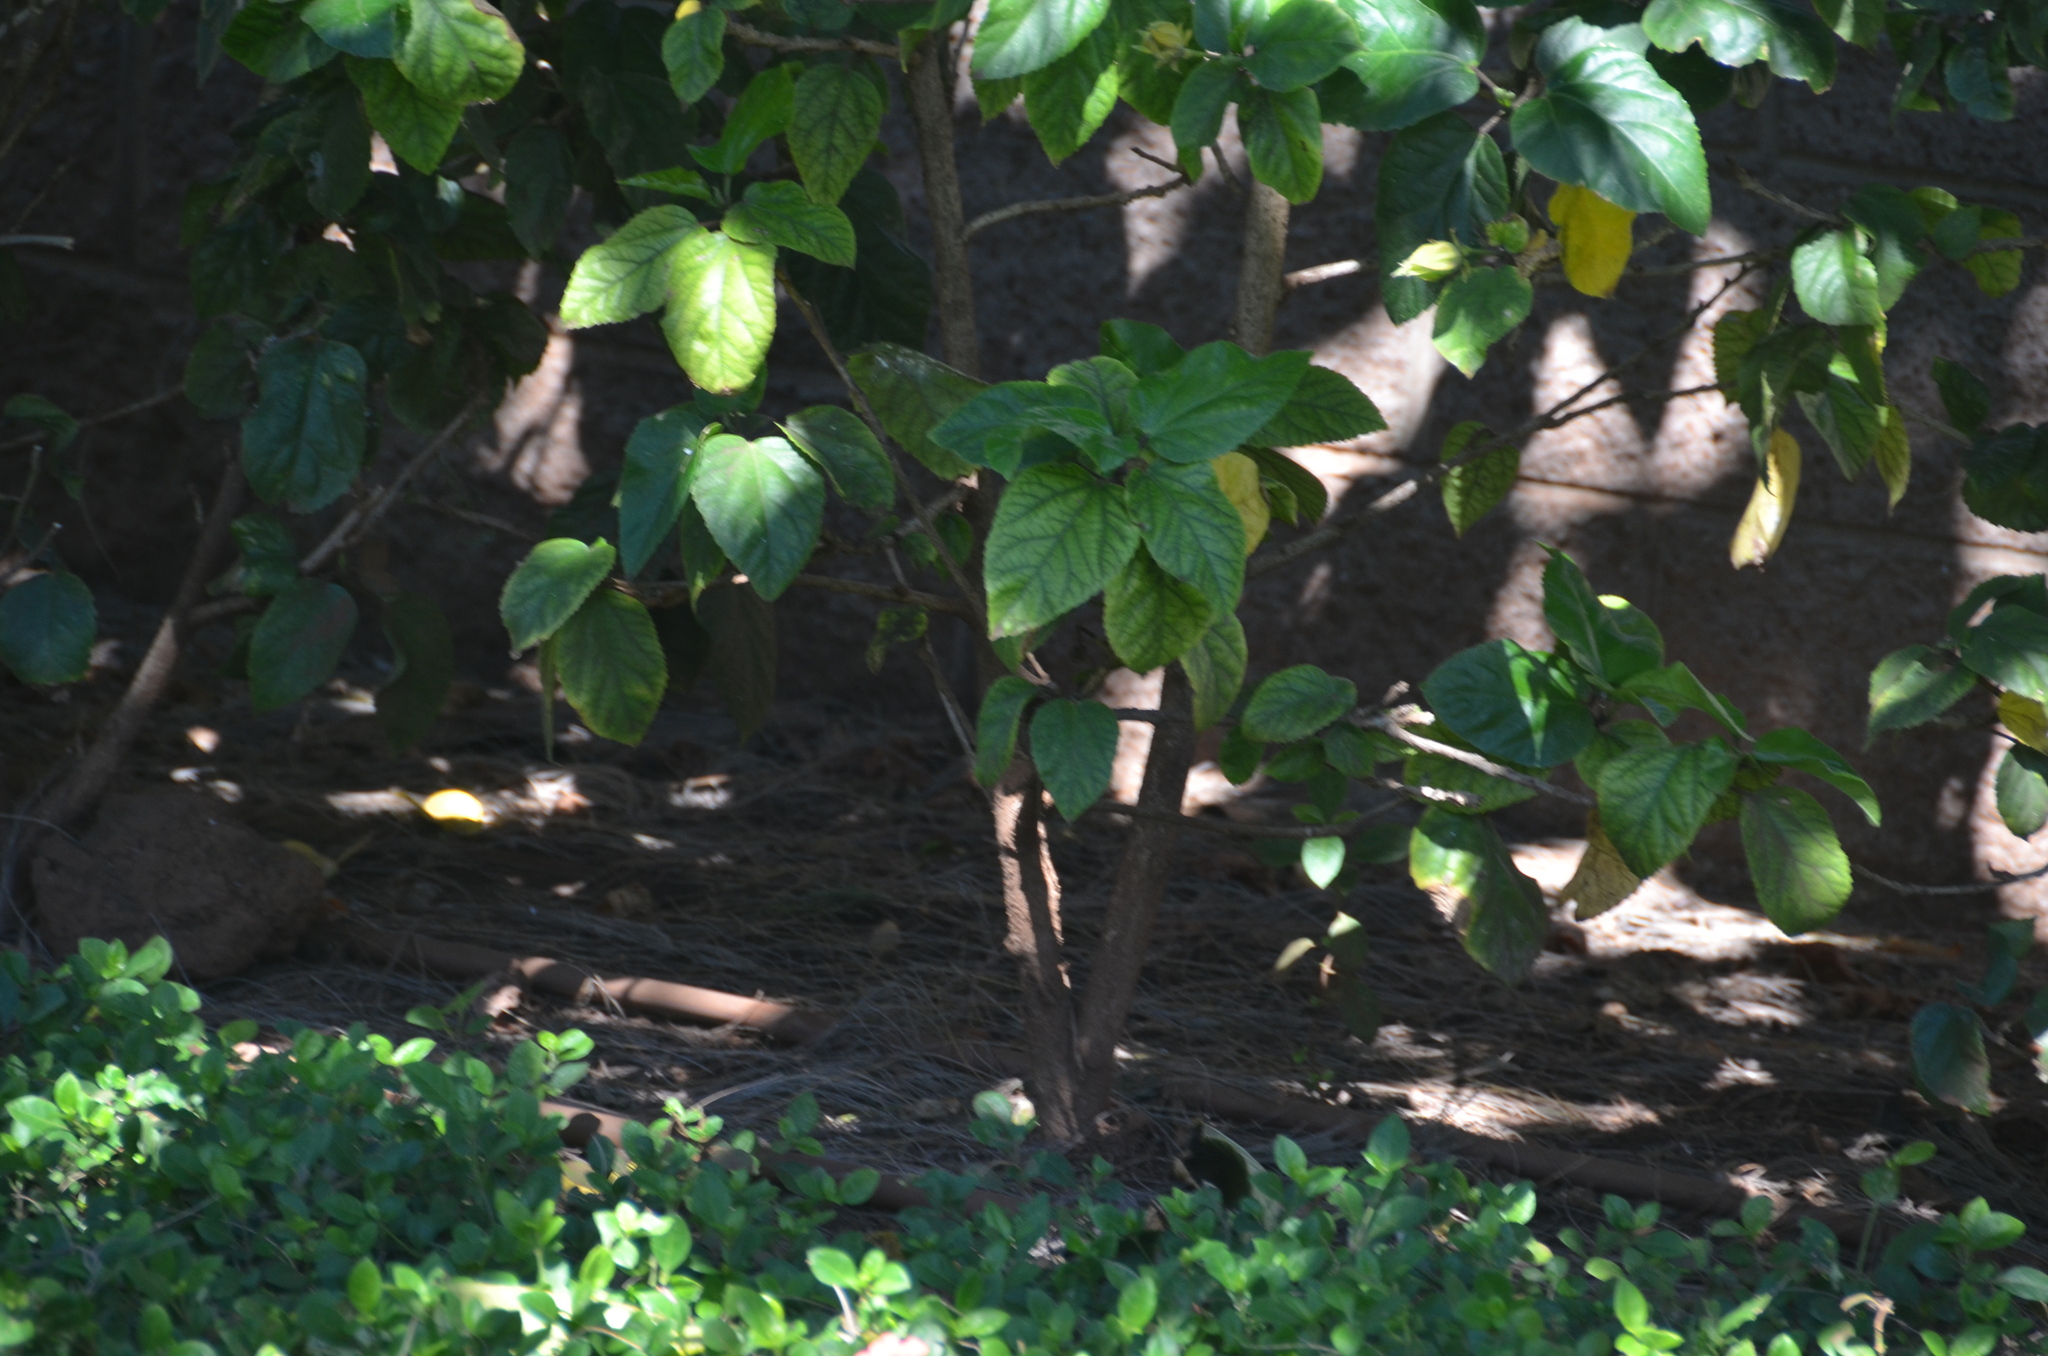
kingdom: Plantae
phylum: Tracheophyta
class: Magnoliopsida
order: Boraginales
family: Cordiaceae
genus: Cordia
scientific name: Cordia subcordata
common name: Mareer
